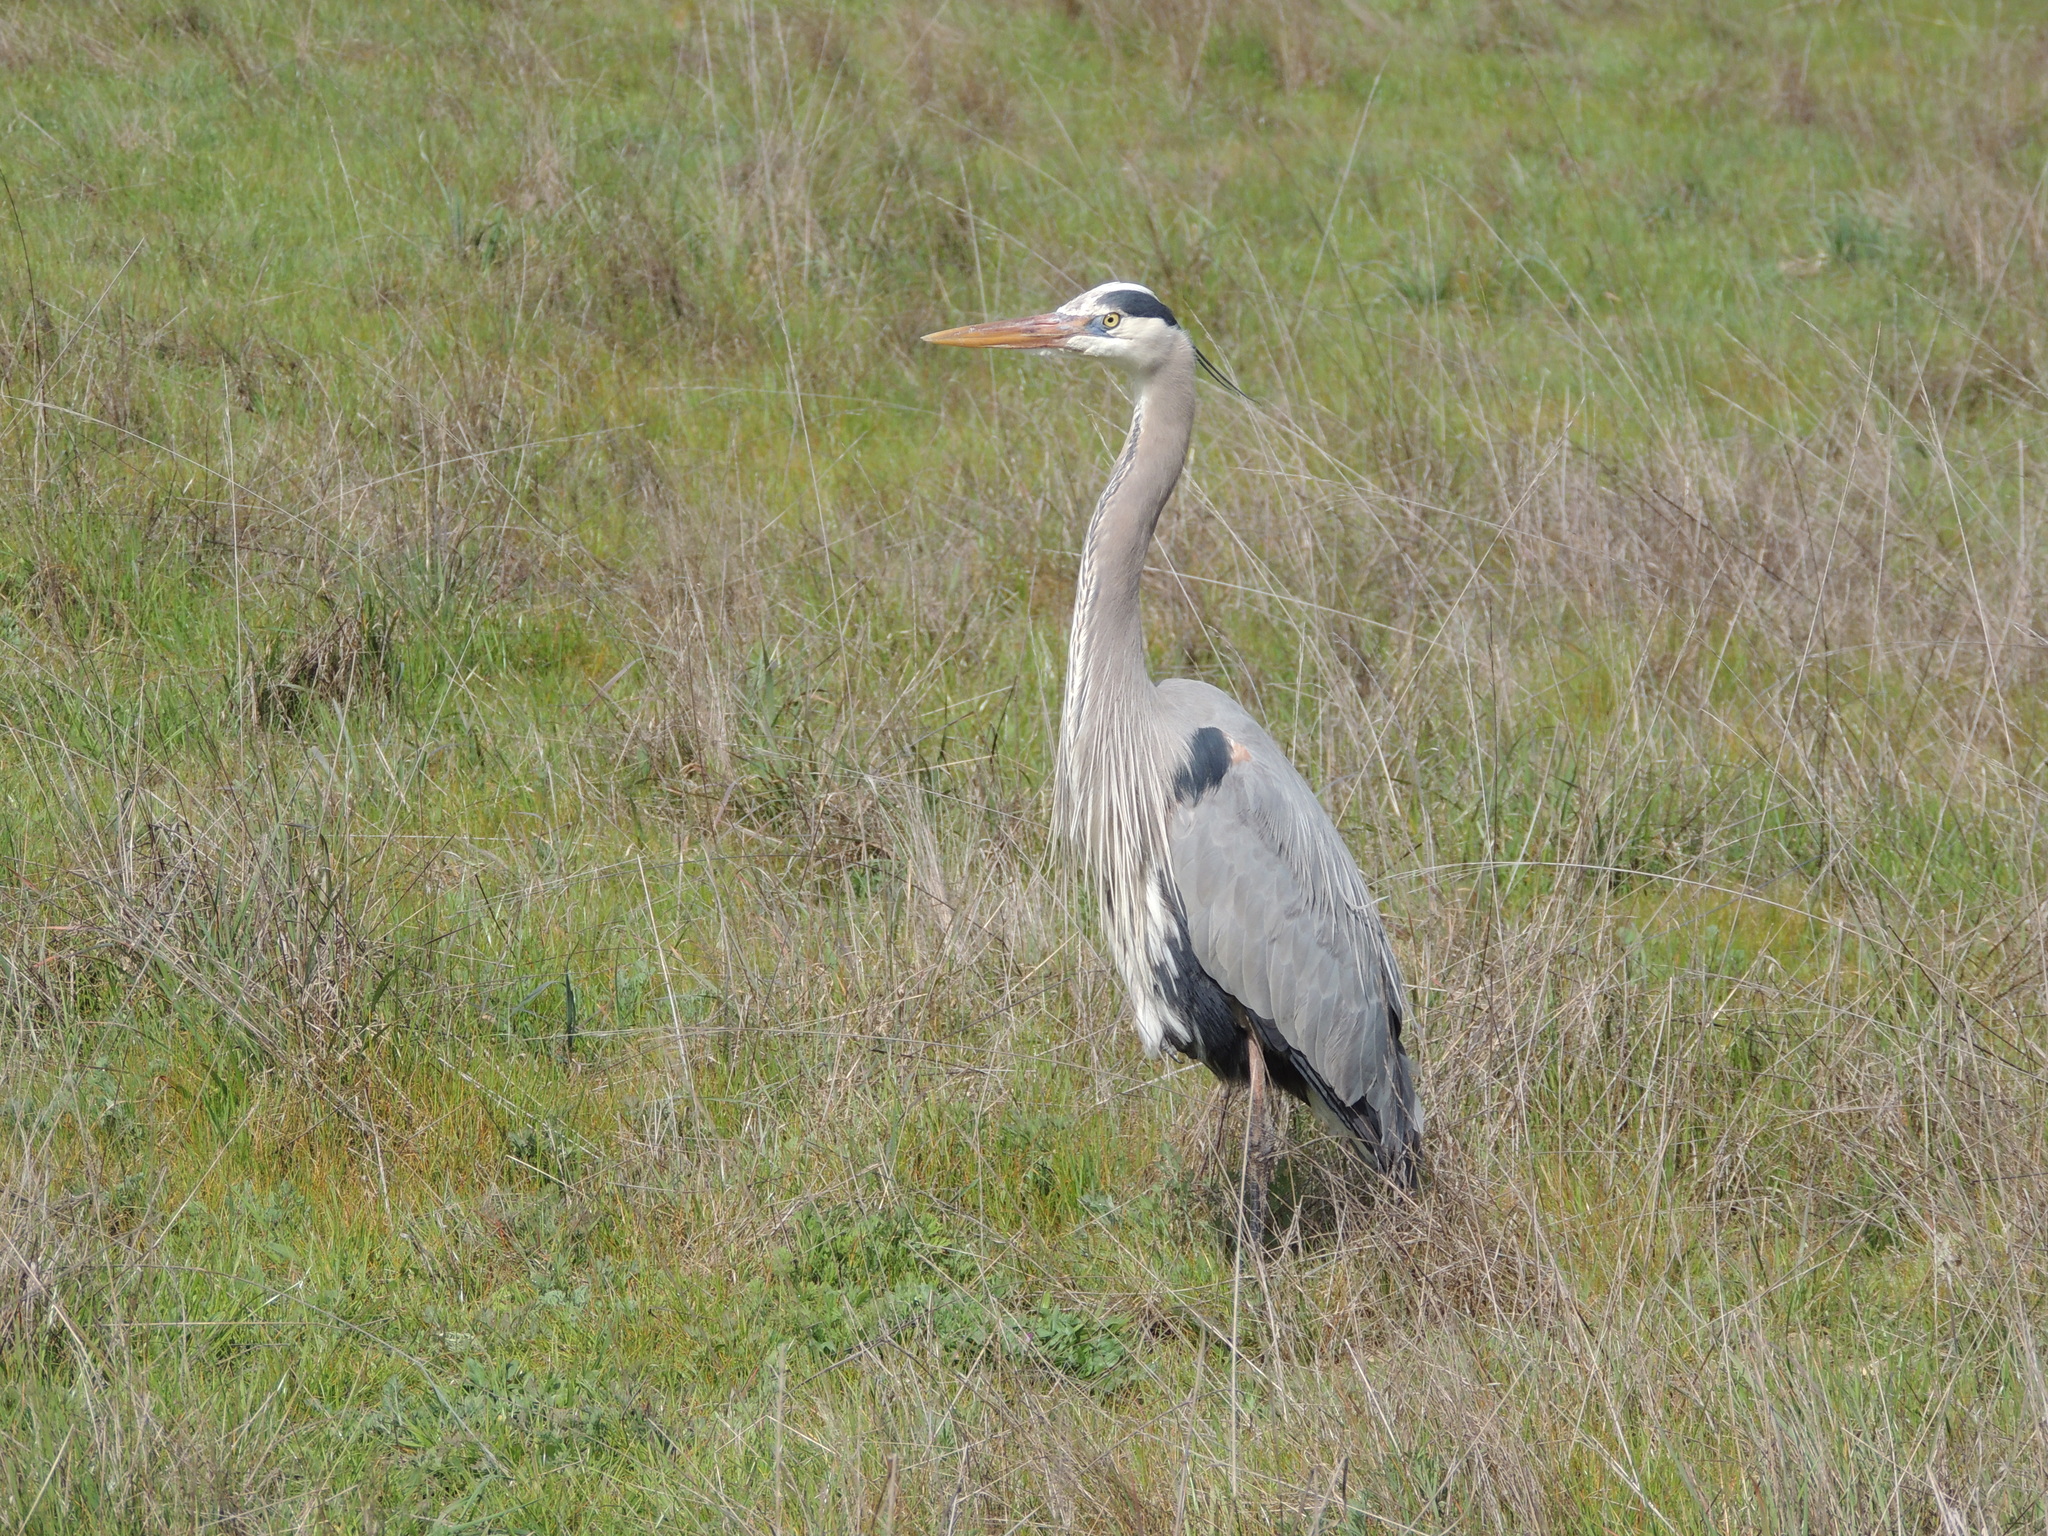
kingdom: Animalia
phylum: Chordata
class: Aves
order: Pelecaniformes
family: Ardeidae
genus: Ardea
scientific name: Ardea herodias
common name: Great blue heron
